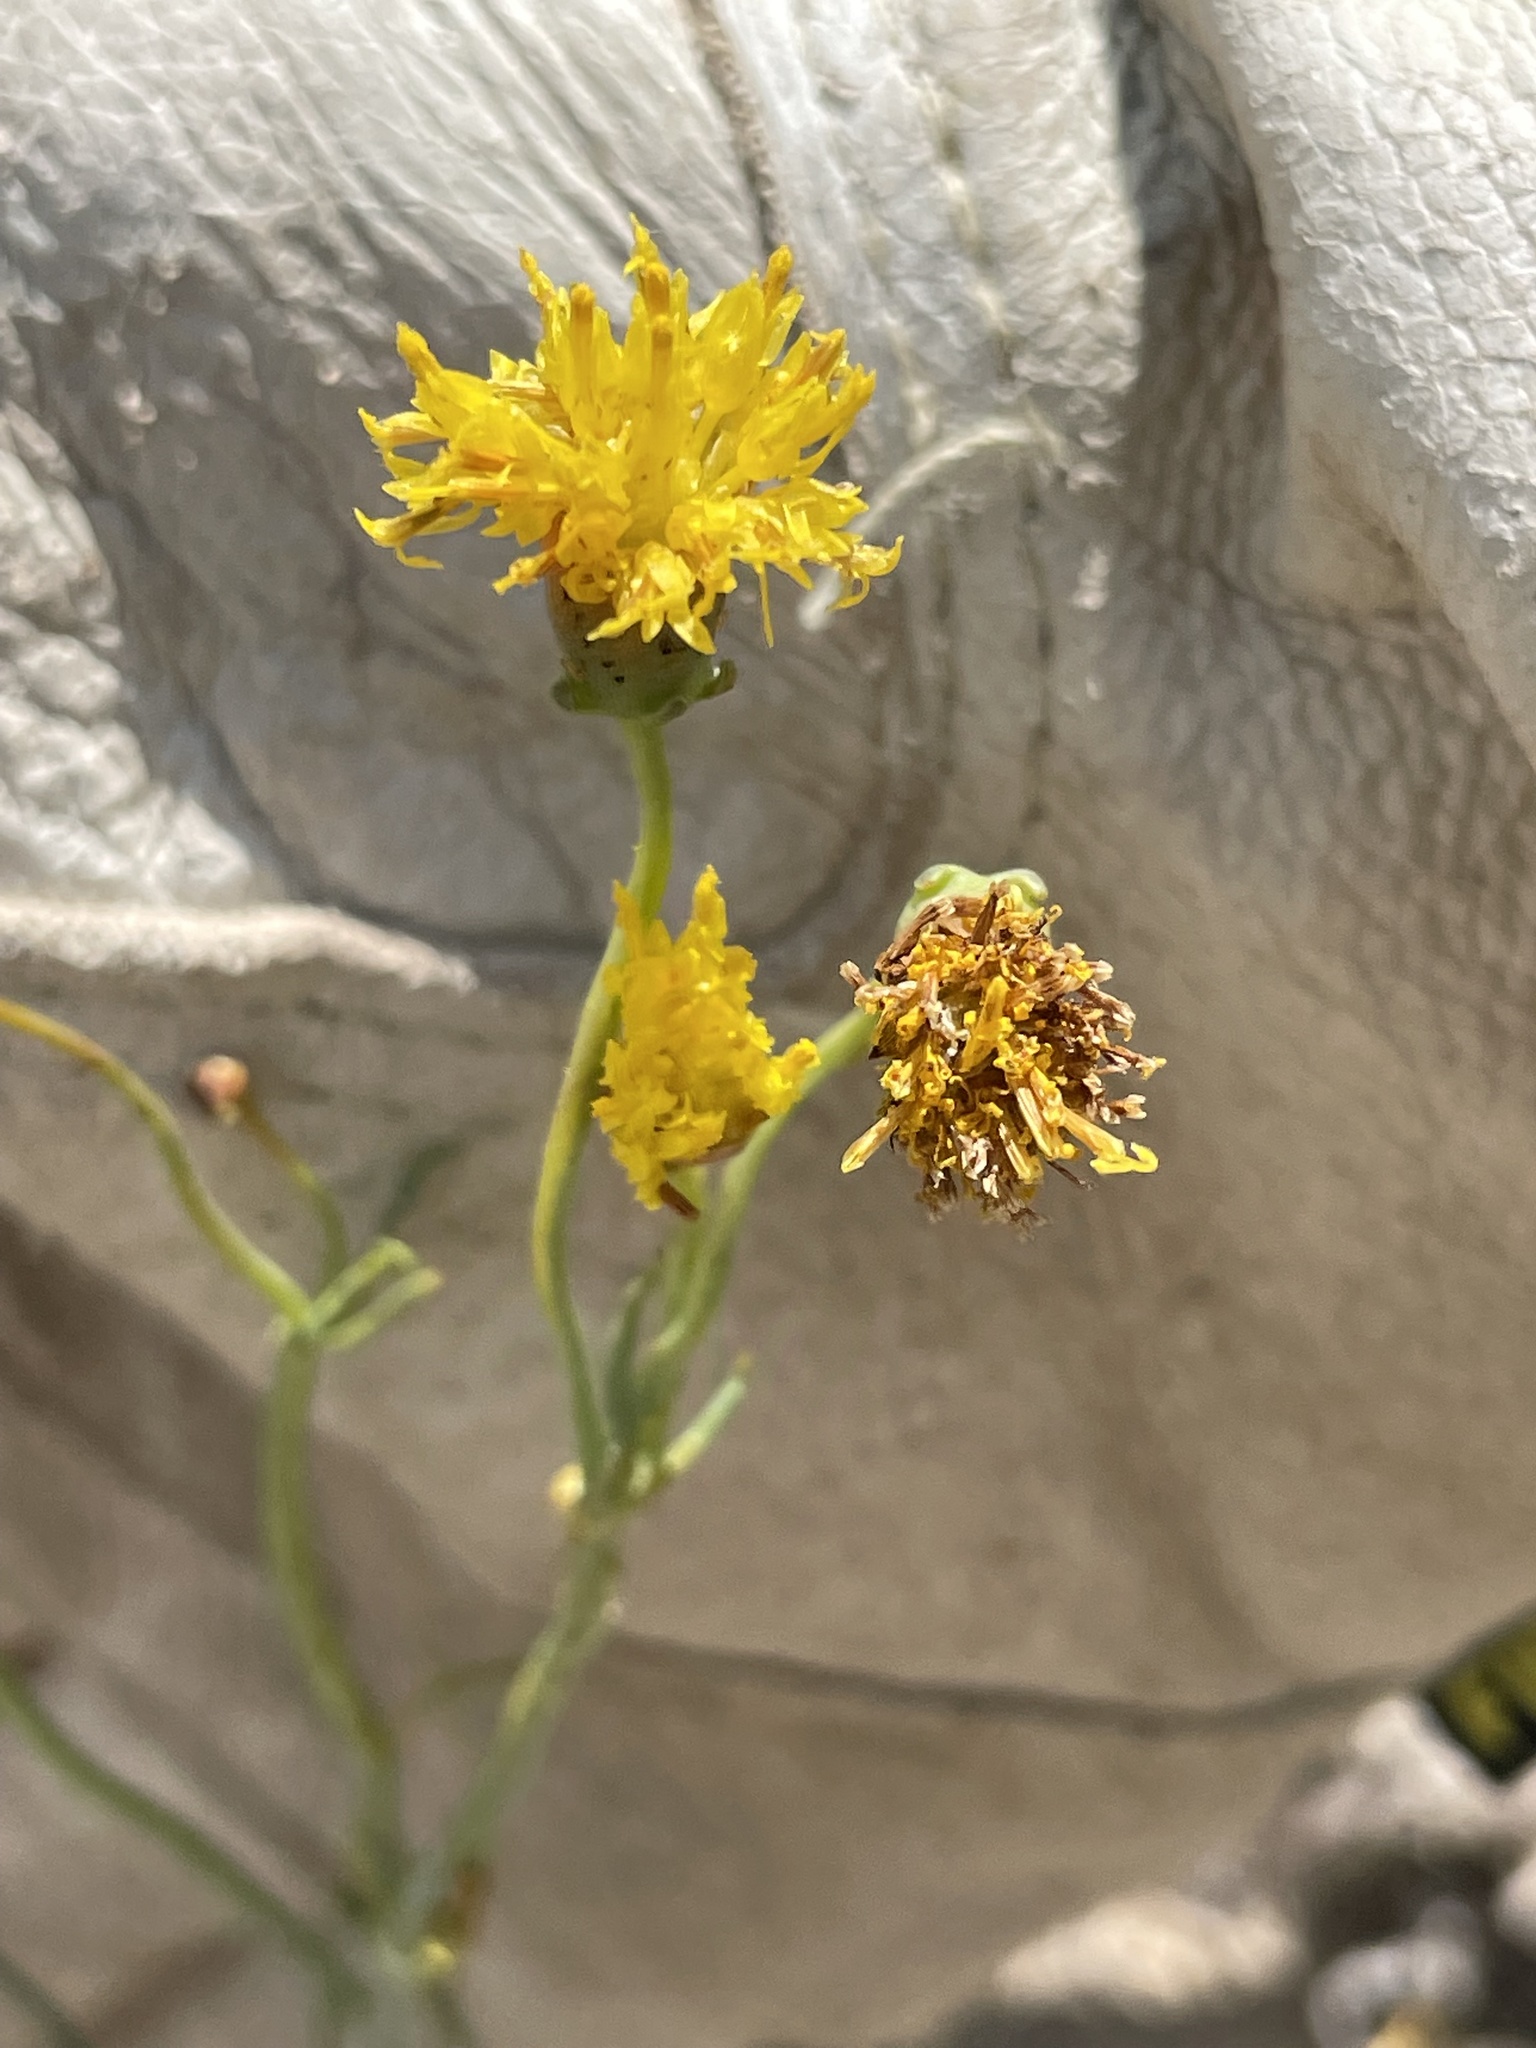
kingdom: Plantae
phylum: Tracheophyta
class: Magnoliopsida
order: Asterales
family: Asteraceae
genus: Thelesperma
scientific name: Thelesperma megapotamicum
